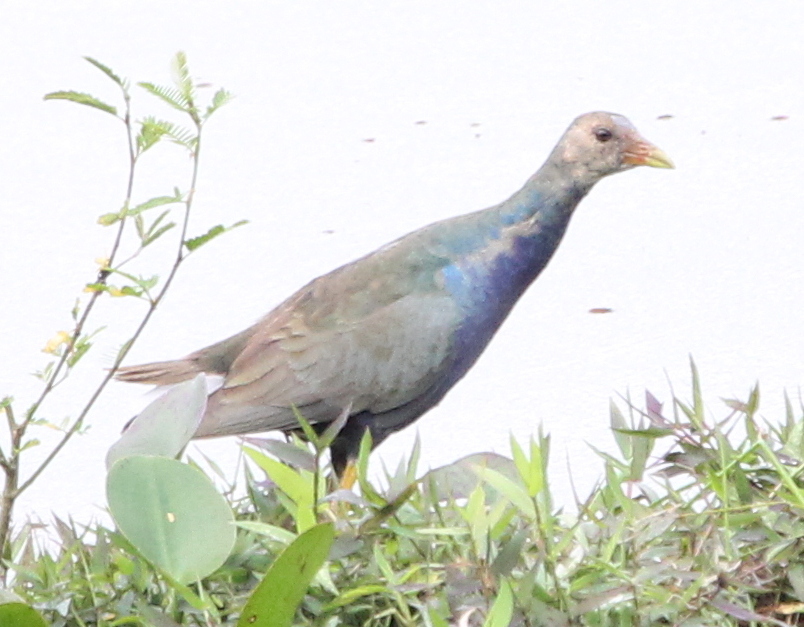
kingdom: Animalia
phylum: Chordata
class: Aves
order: Gruiformes
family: Rallidae
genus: Porphyrio
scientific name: Porphyrio martinica
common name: Purple gallinule
